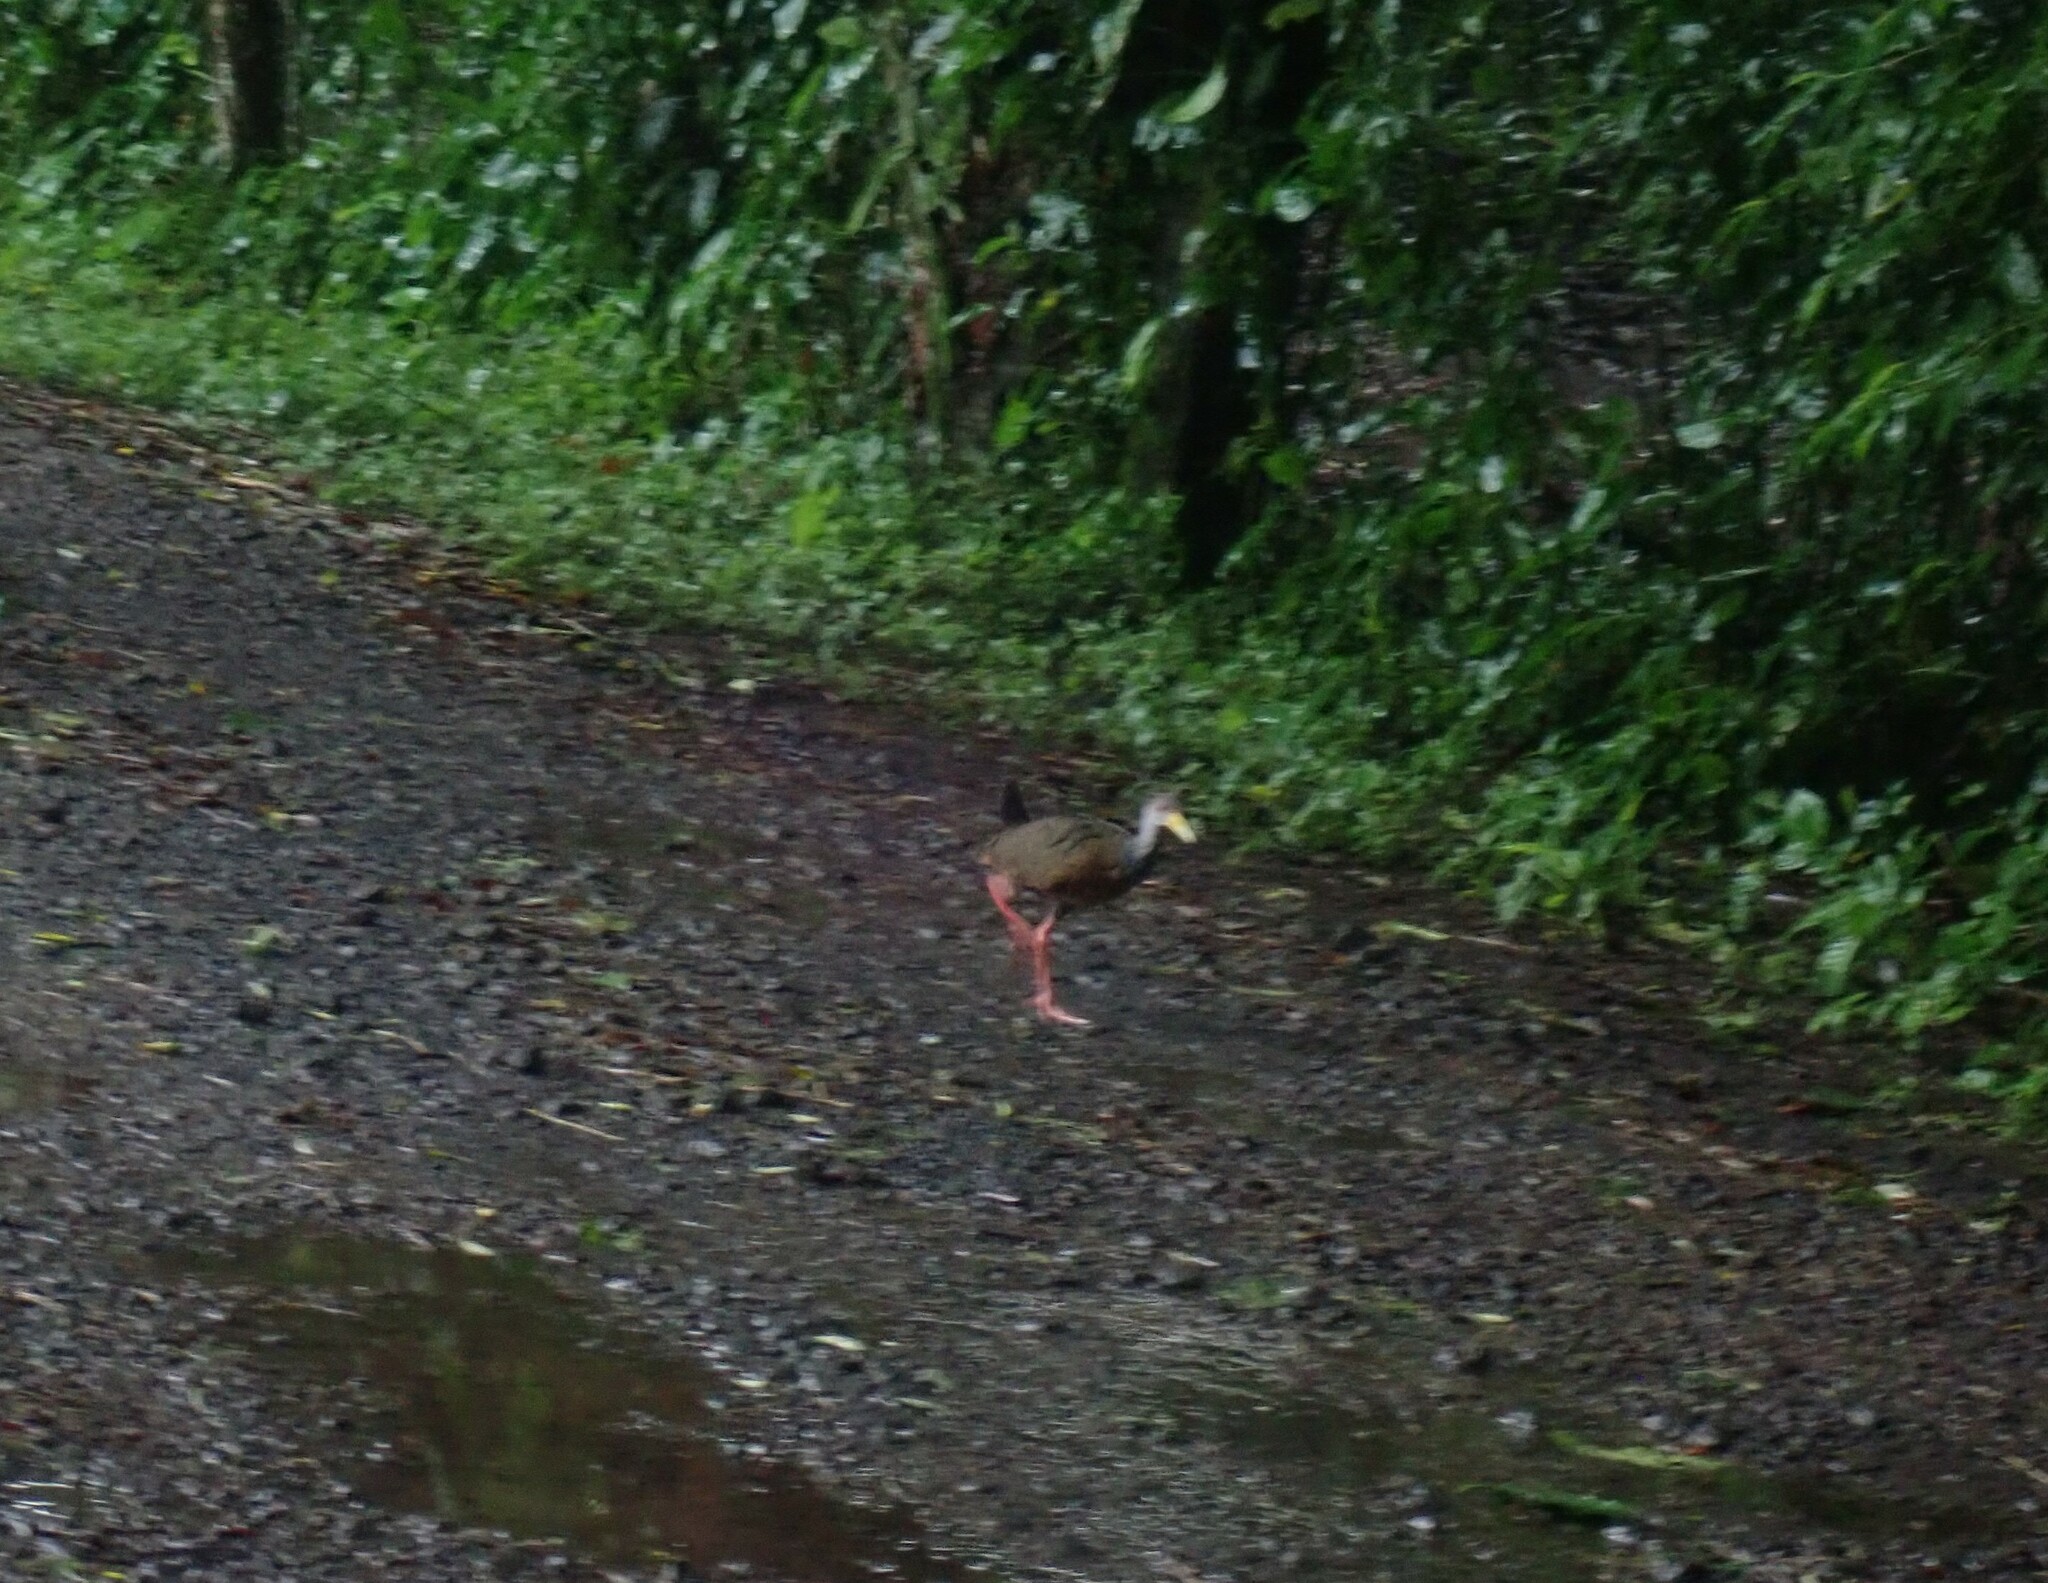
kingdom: Animalia
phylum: Chordata
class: Aves
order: Gruiformes
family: Rallidae
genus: Aramides
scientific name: Aramides albiventris
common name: Russet-naped wood-rail
